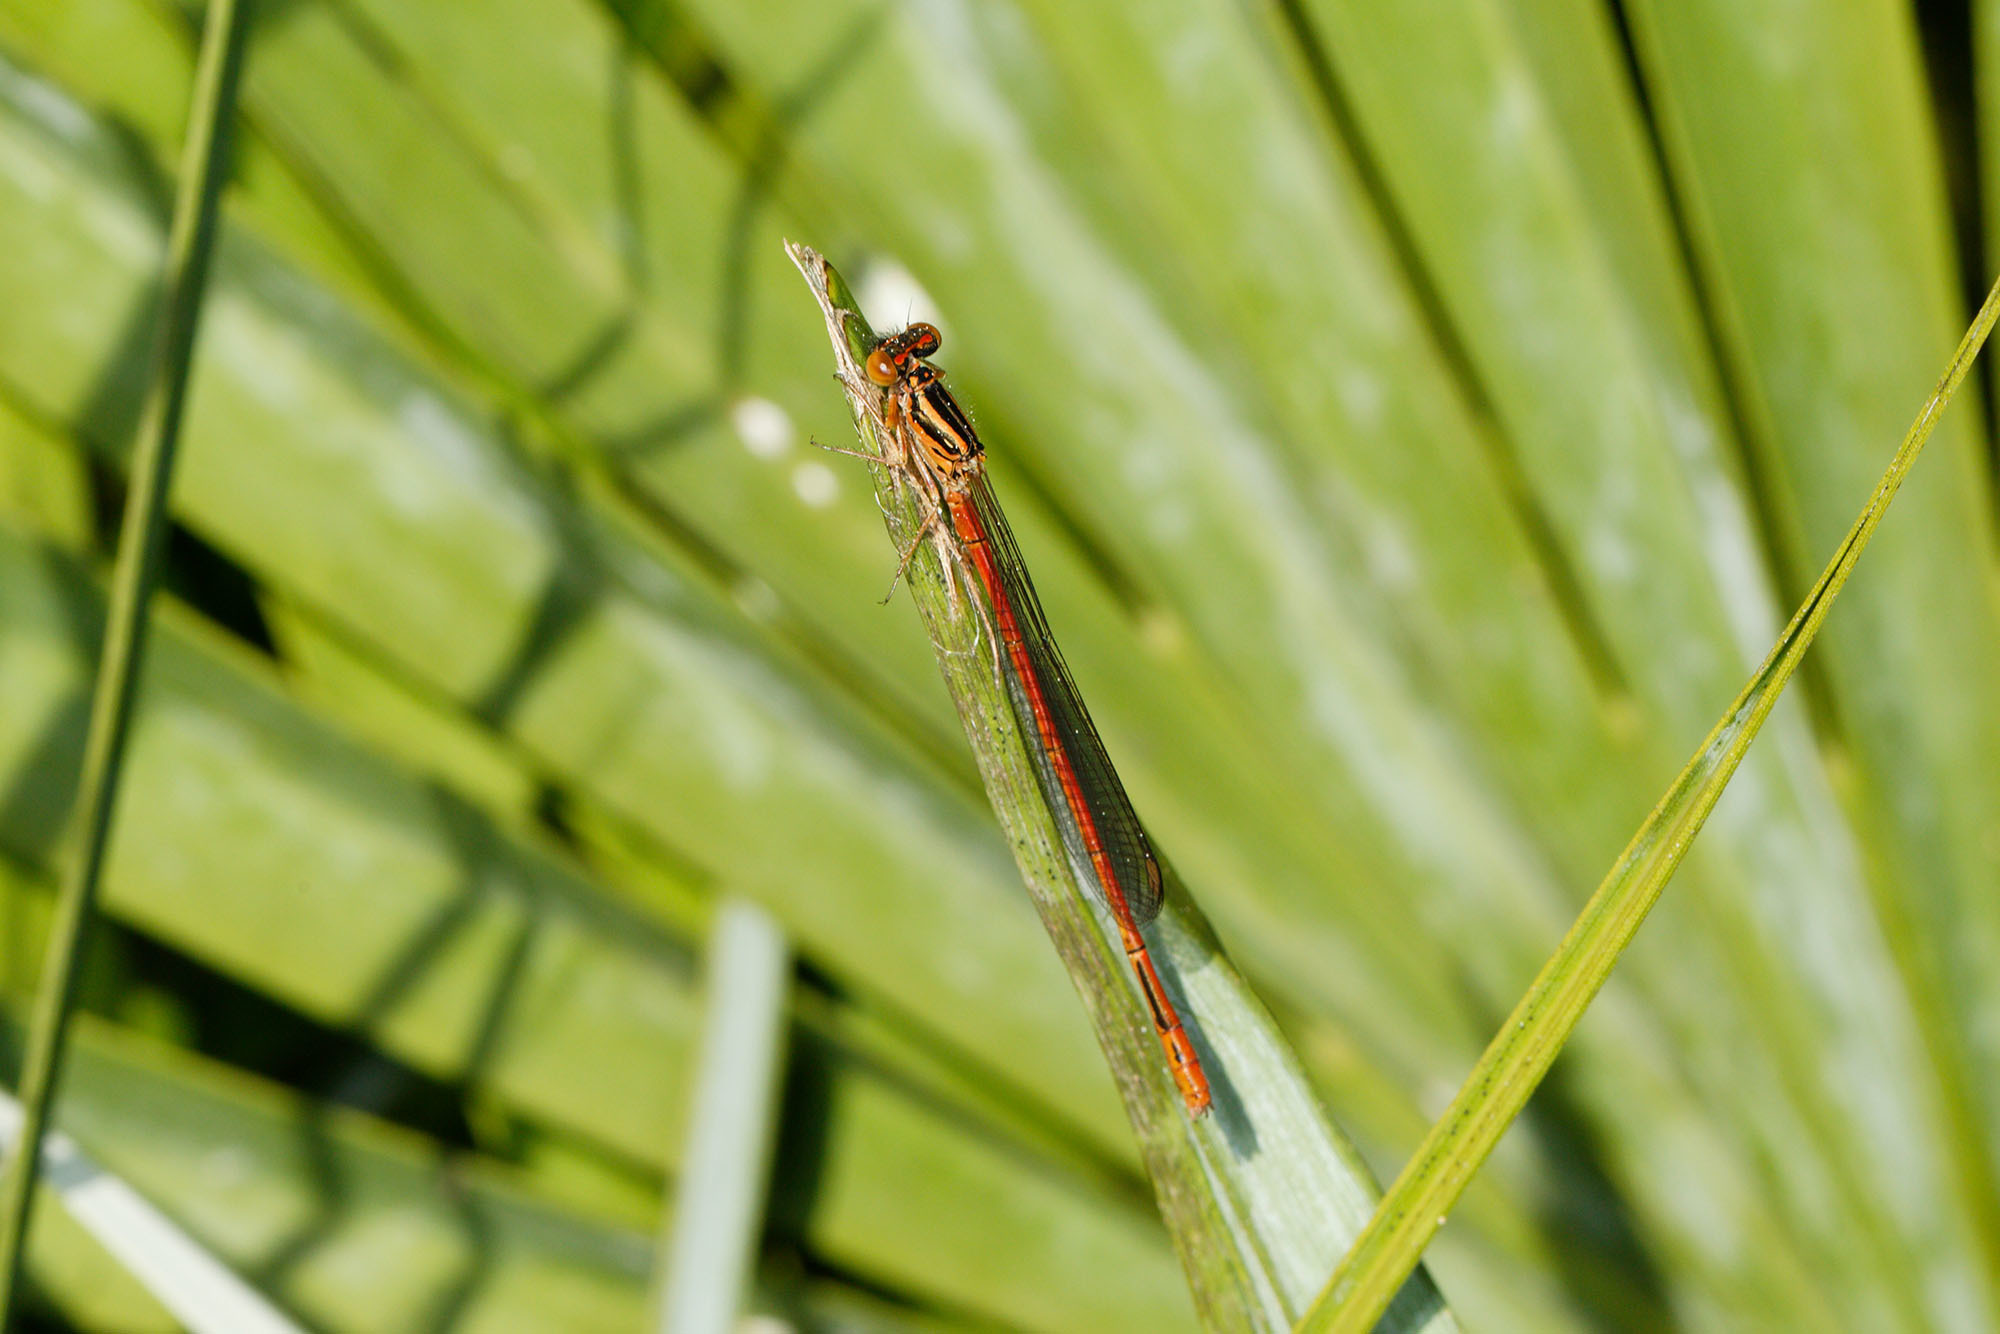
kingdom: Animalia
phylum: Arthropoda
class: Insecta
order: Odonata
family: Coenagrionidae
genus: Xanthocnemis
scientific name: Xanthocnemis zealandica
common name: Common redcoat damselfly
